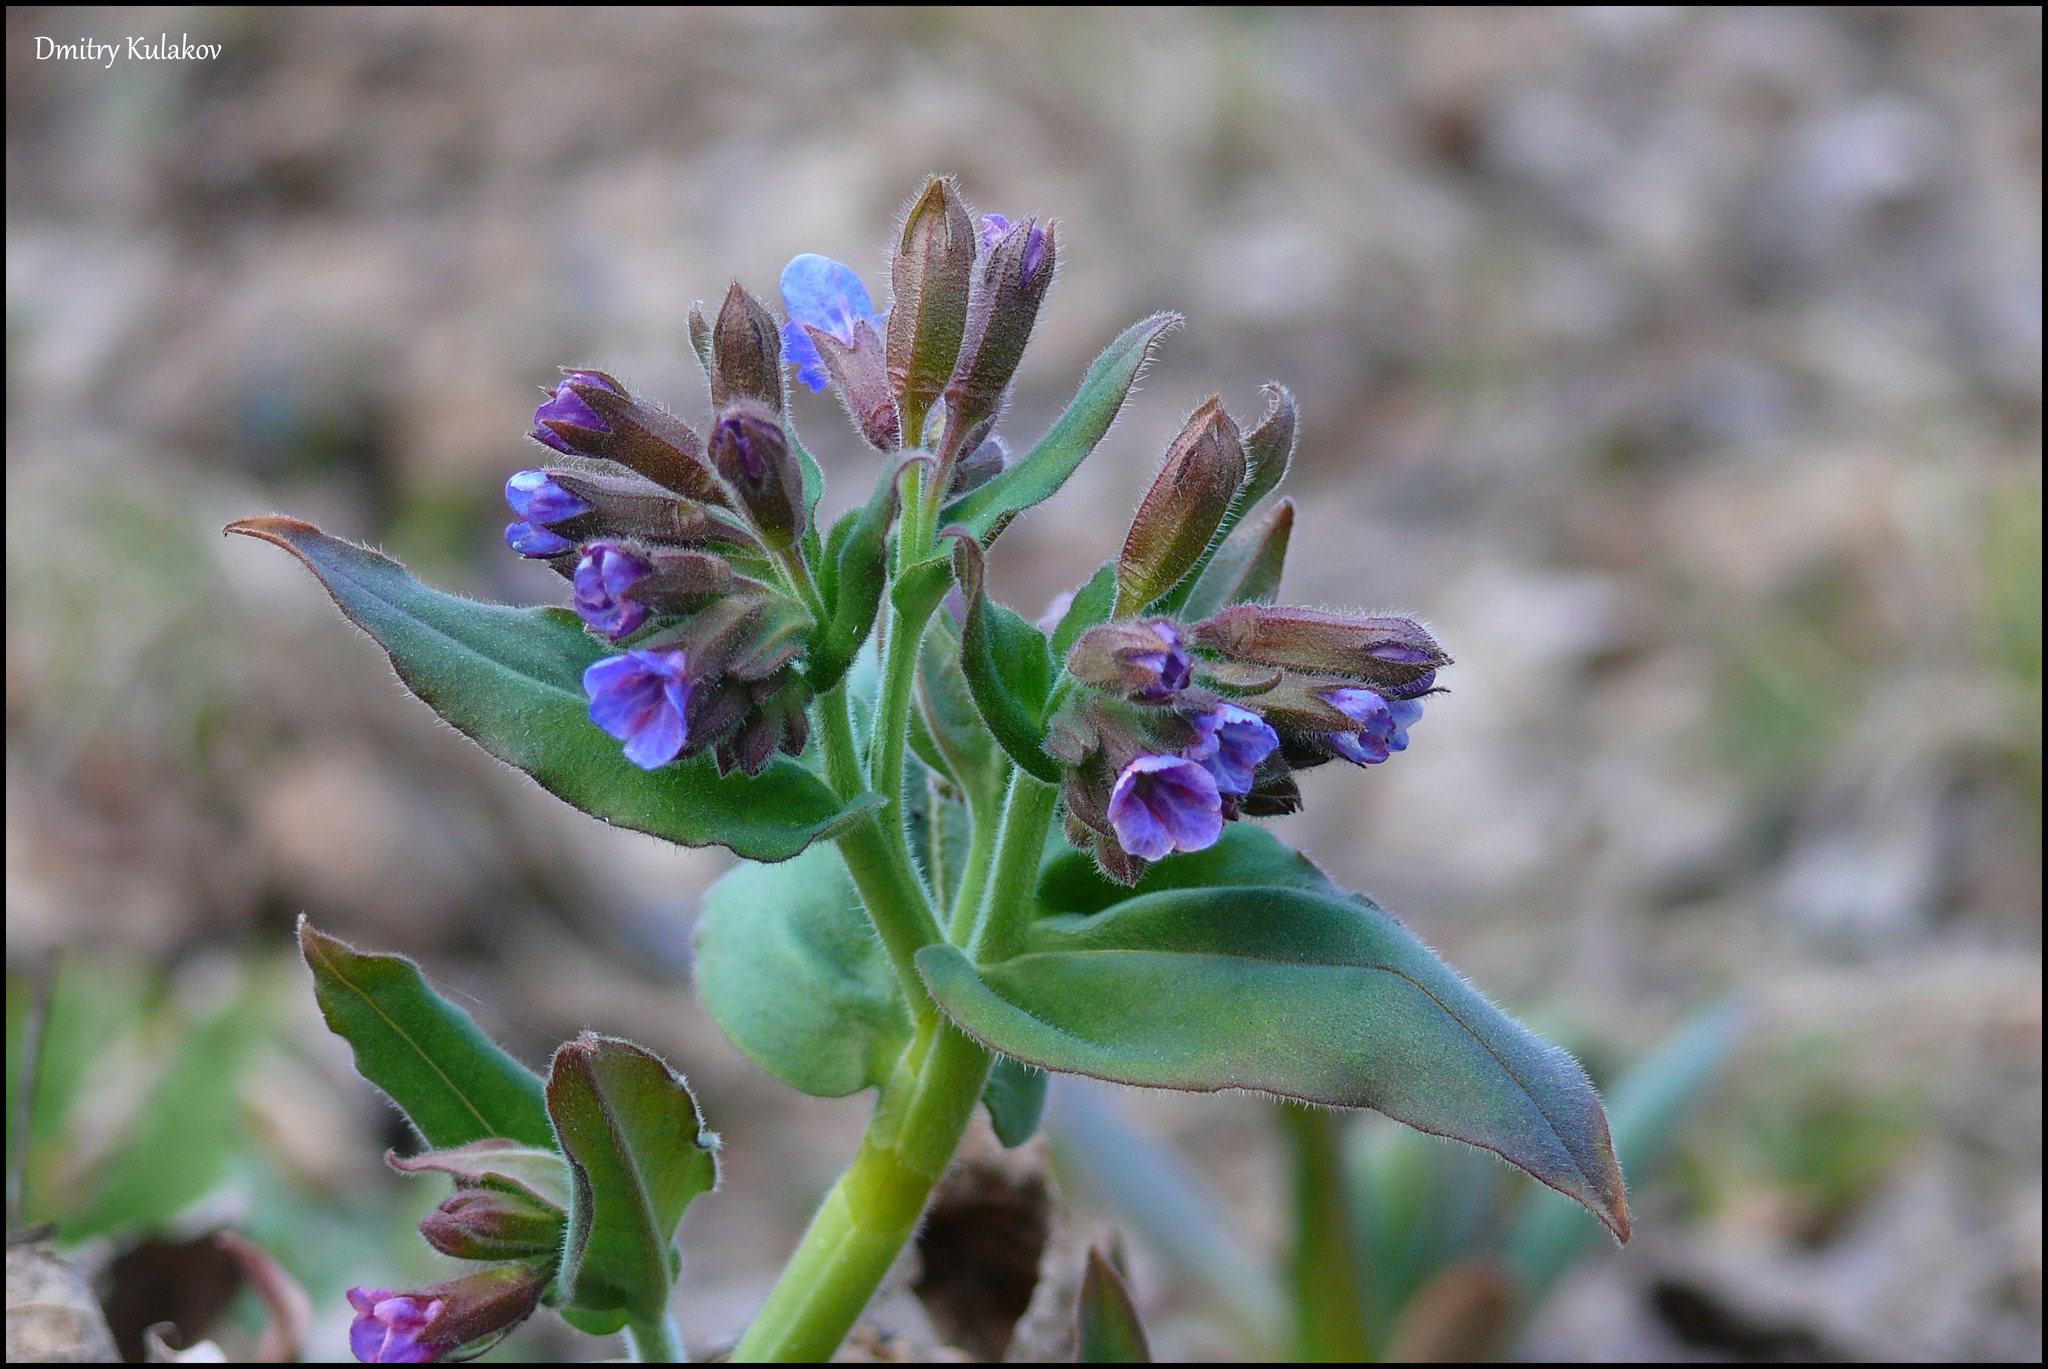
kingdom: Plantae
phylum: Tracheophyta
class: Magnoliopsida
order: Boraginales
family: Boraginaceae
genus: Pulmonaria
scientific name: Pulmonaria mollis
